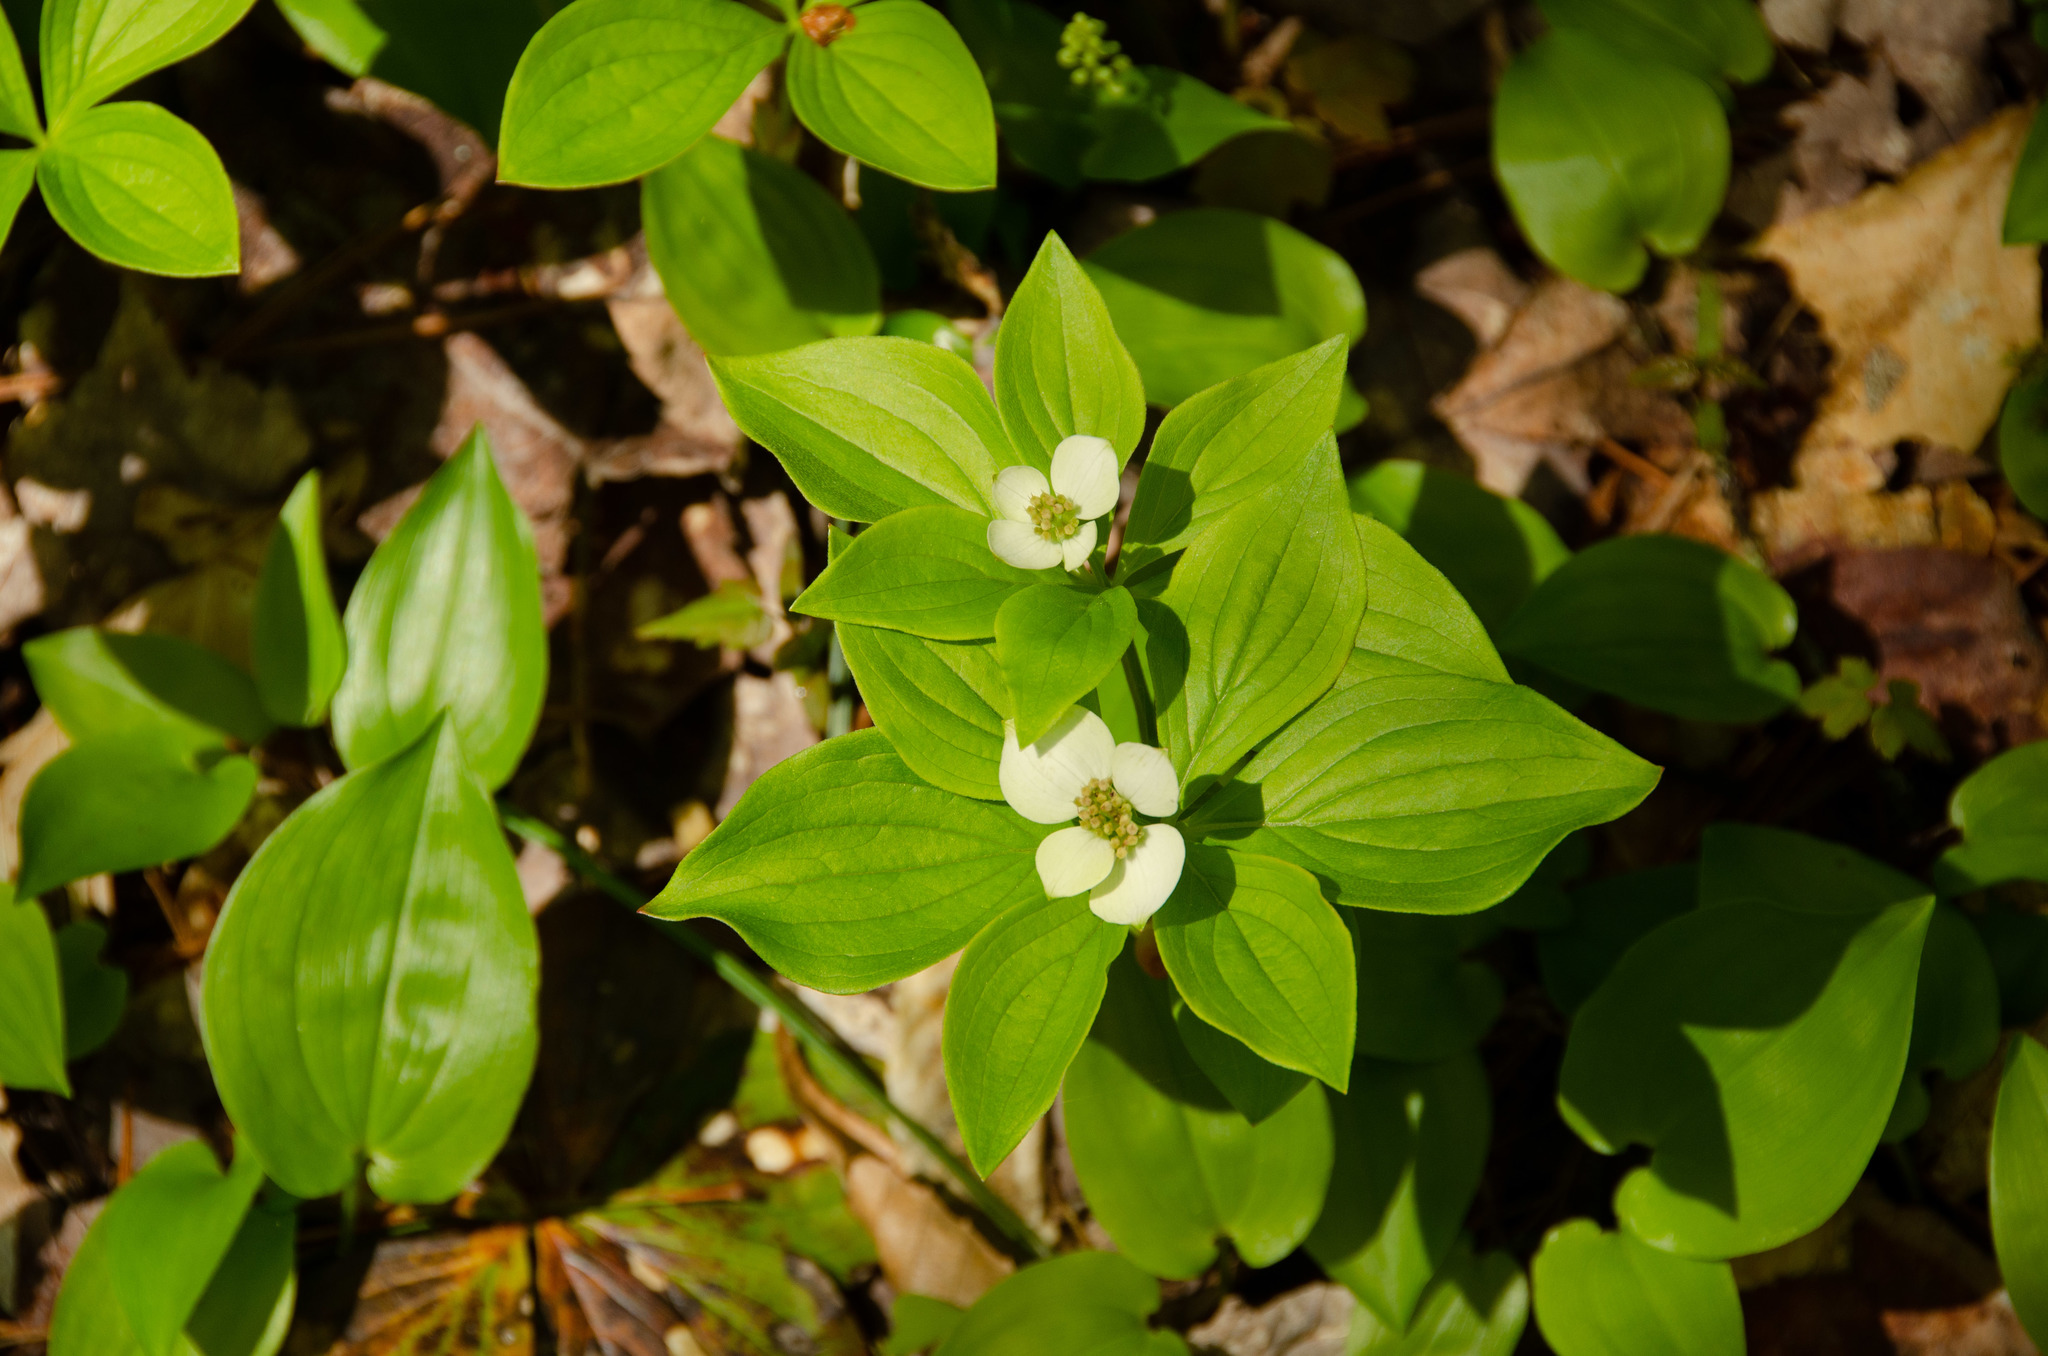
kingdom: Plantae
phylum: Tracheophyta
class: Magnoliopsida
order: Cornales
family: Cornaceae
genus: Cornus
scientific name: Cornus canadensis
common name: Creeping dogwood
